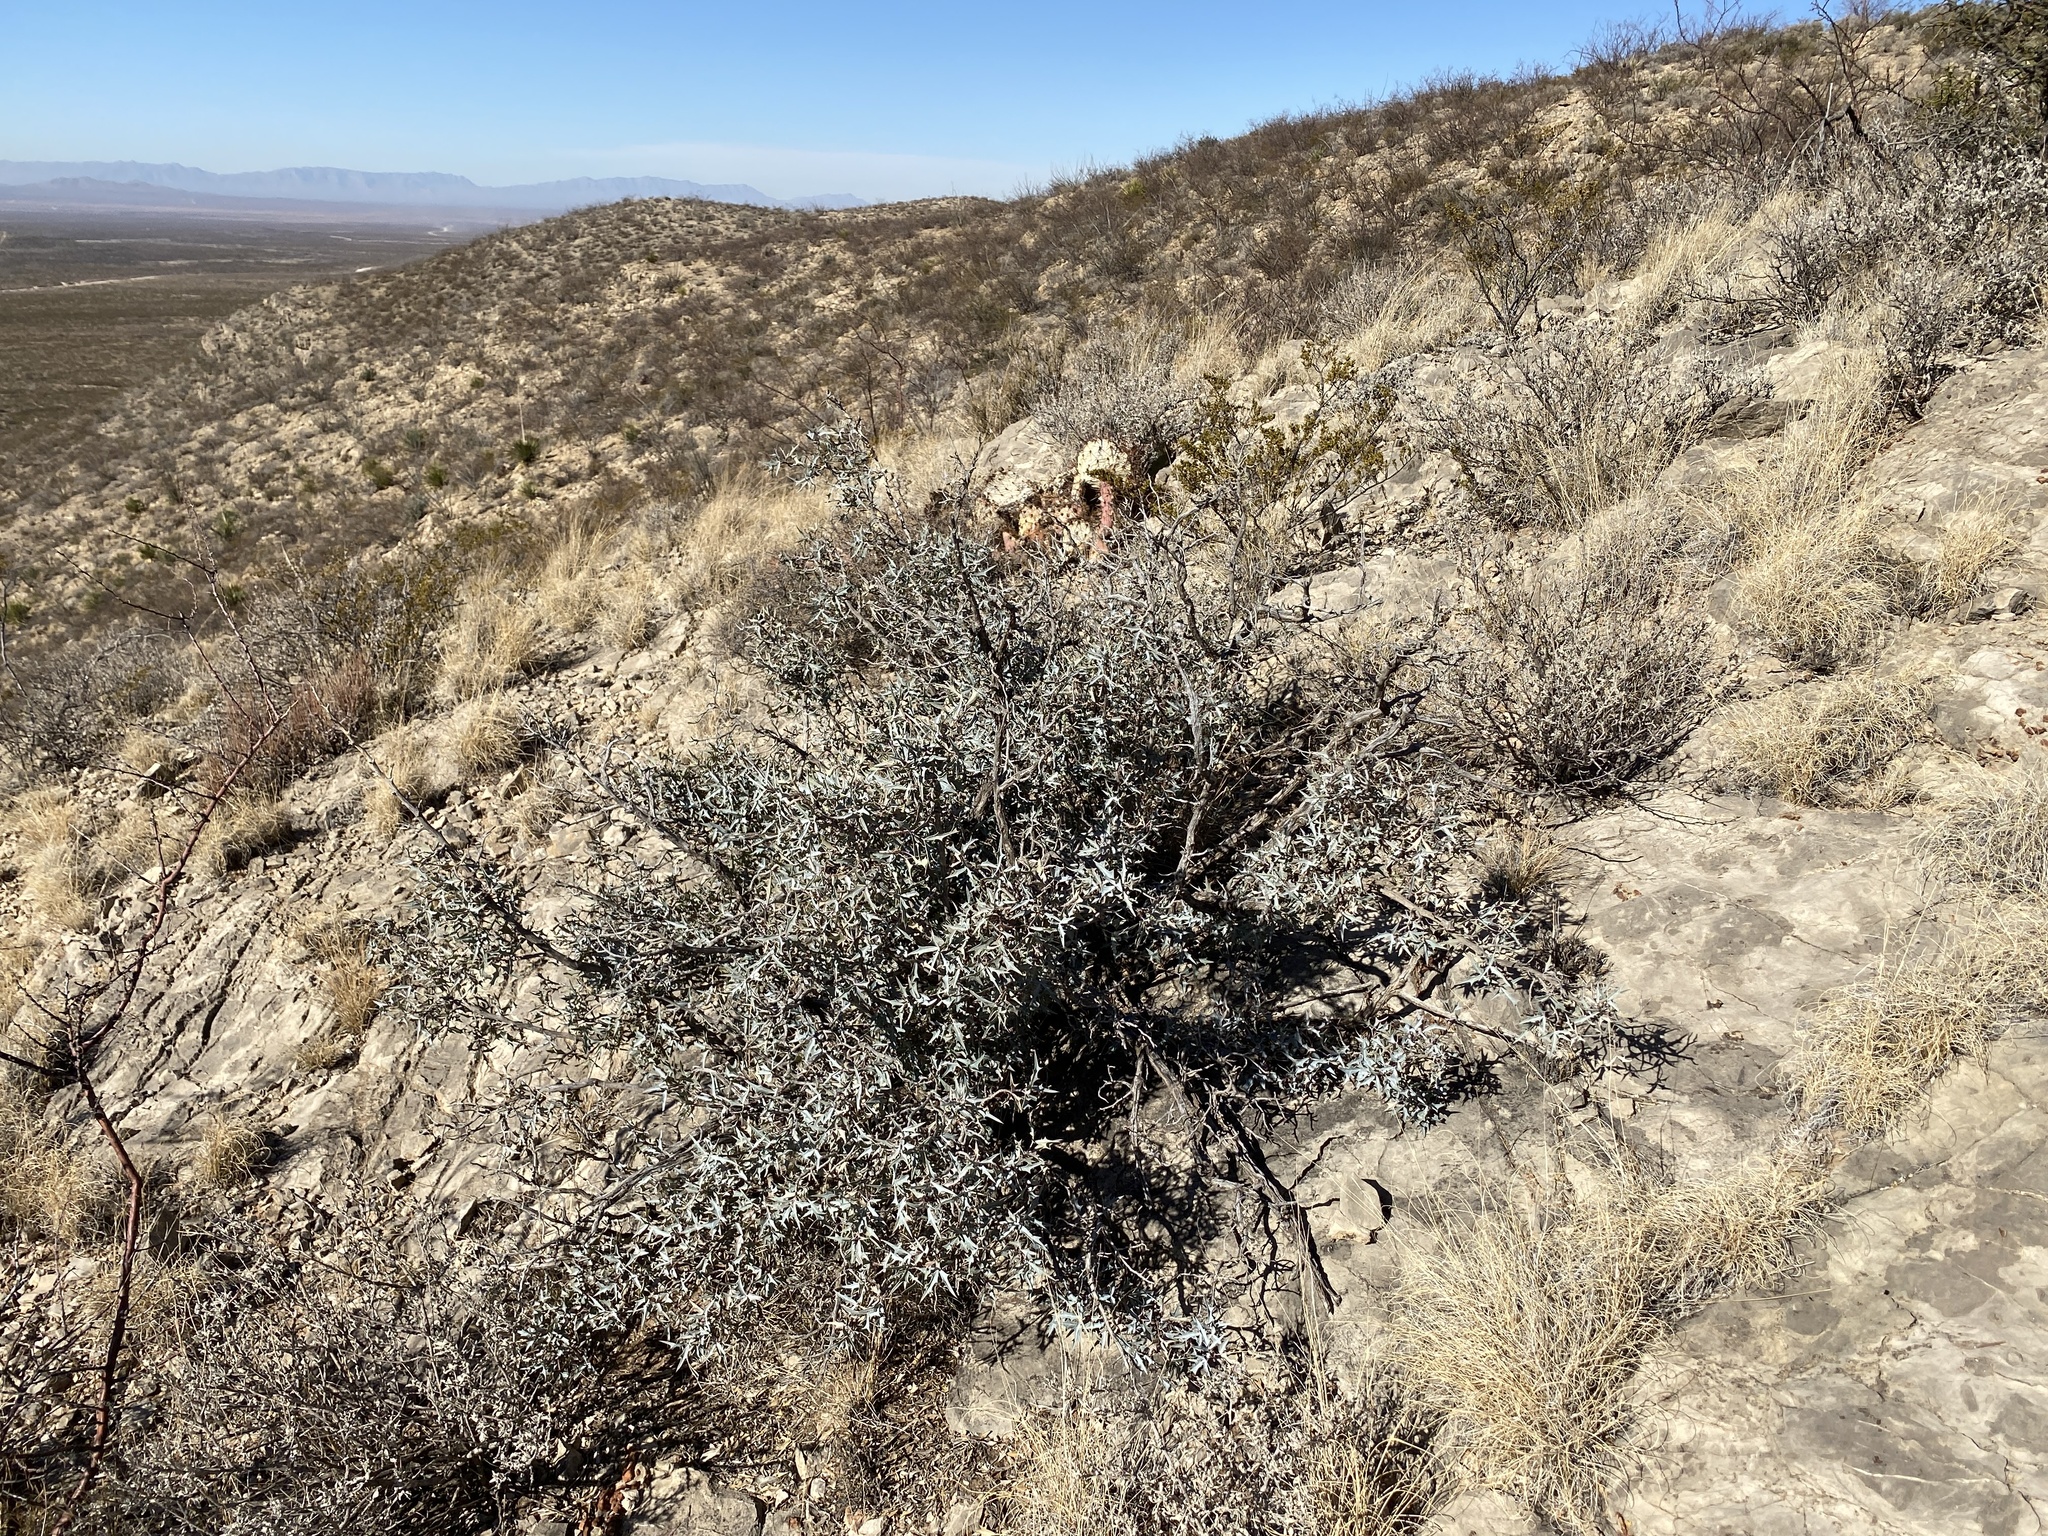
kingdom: Plantae
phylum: Tracheophyta
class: Magnoliopsida
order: Ranunculales
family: Berberidaceae
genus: Alloberberis
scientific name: Alloberberis trifoliolata
